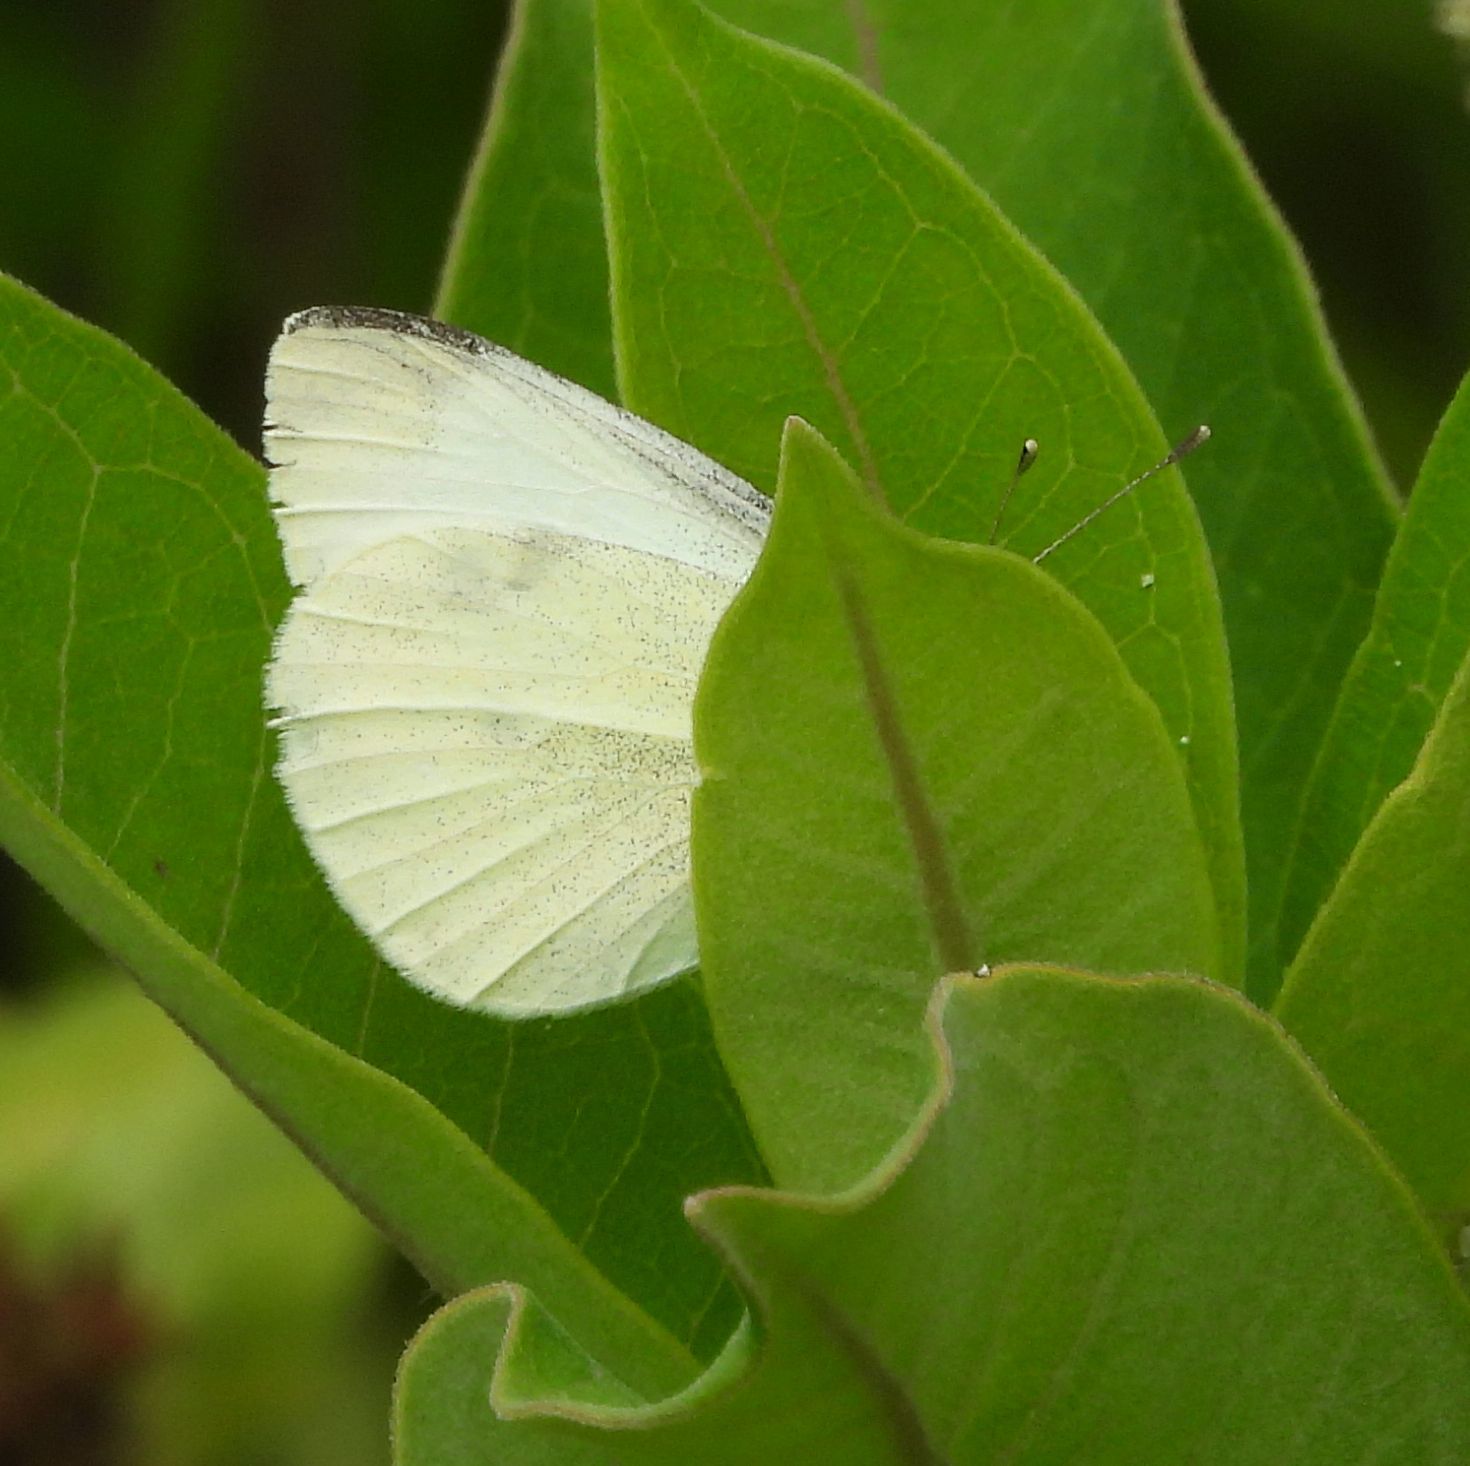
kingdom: Animalia
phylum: Arthropoda
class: Insecta
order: Lepidoptera
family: Pieridae
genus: Pieris
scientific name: Pieris rapae
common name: Small white
